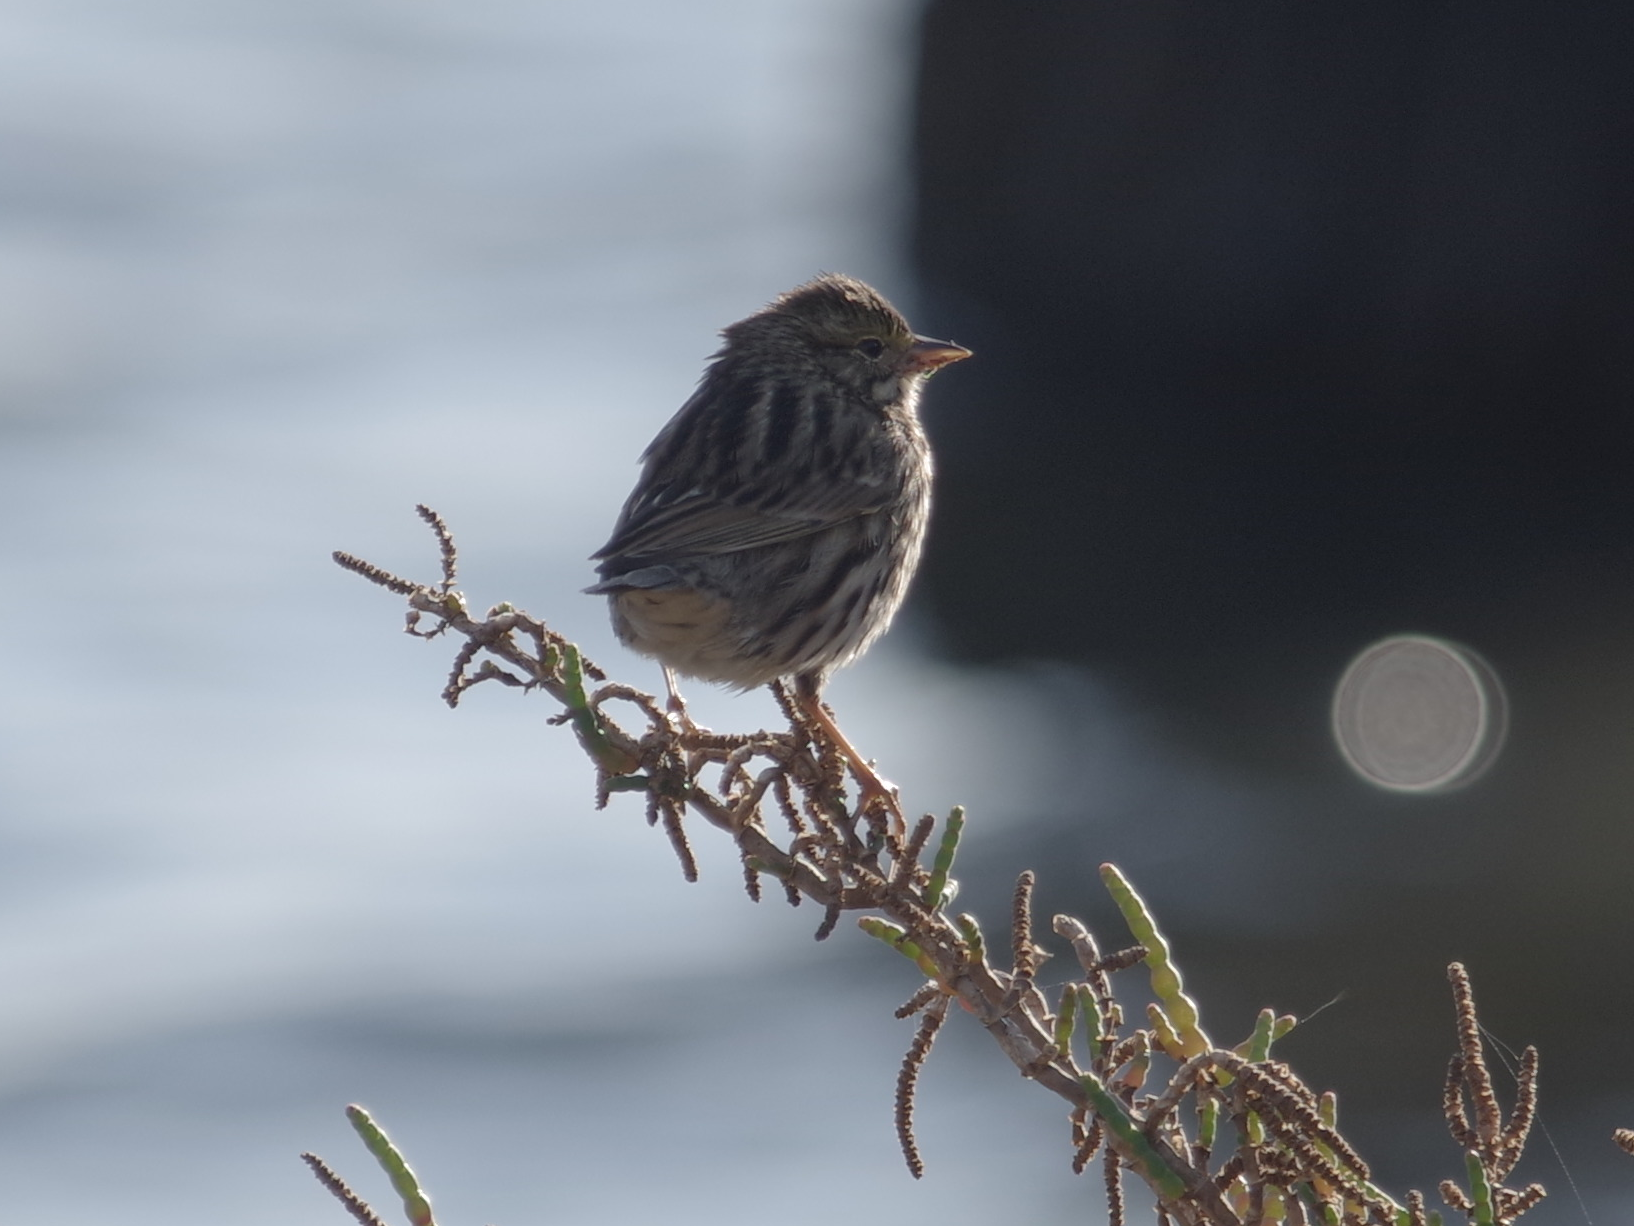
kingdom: Animalia
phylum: Chordata
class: Aves
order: Passeriformes
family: Passerellidae
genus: Passerculus
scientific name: Passerculus sandwichensis
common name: Savannah sparrow
